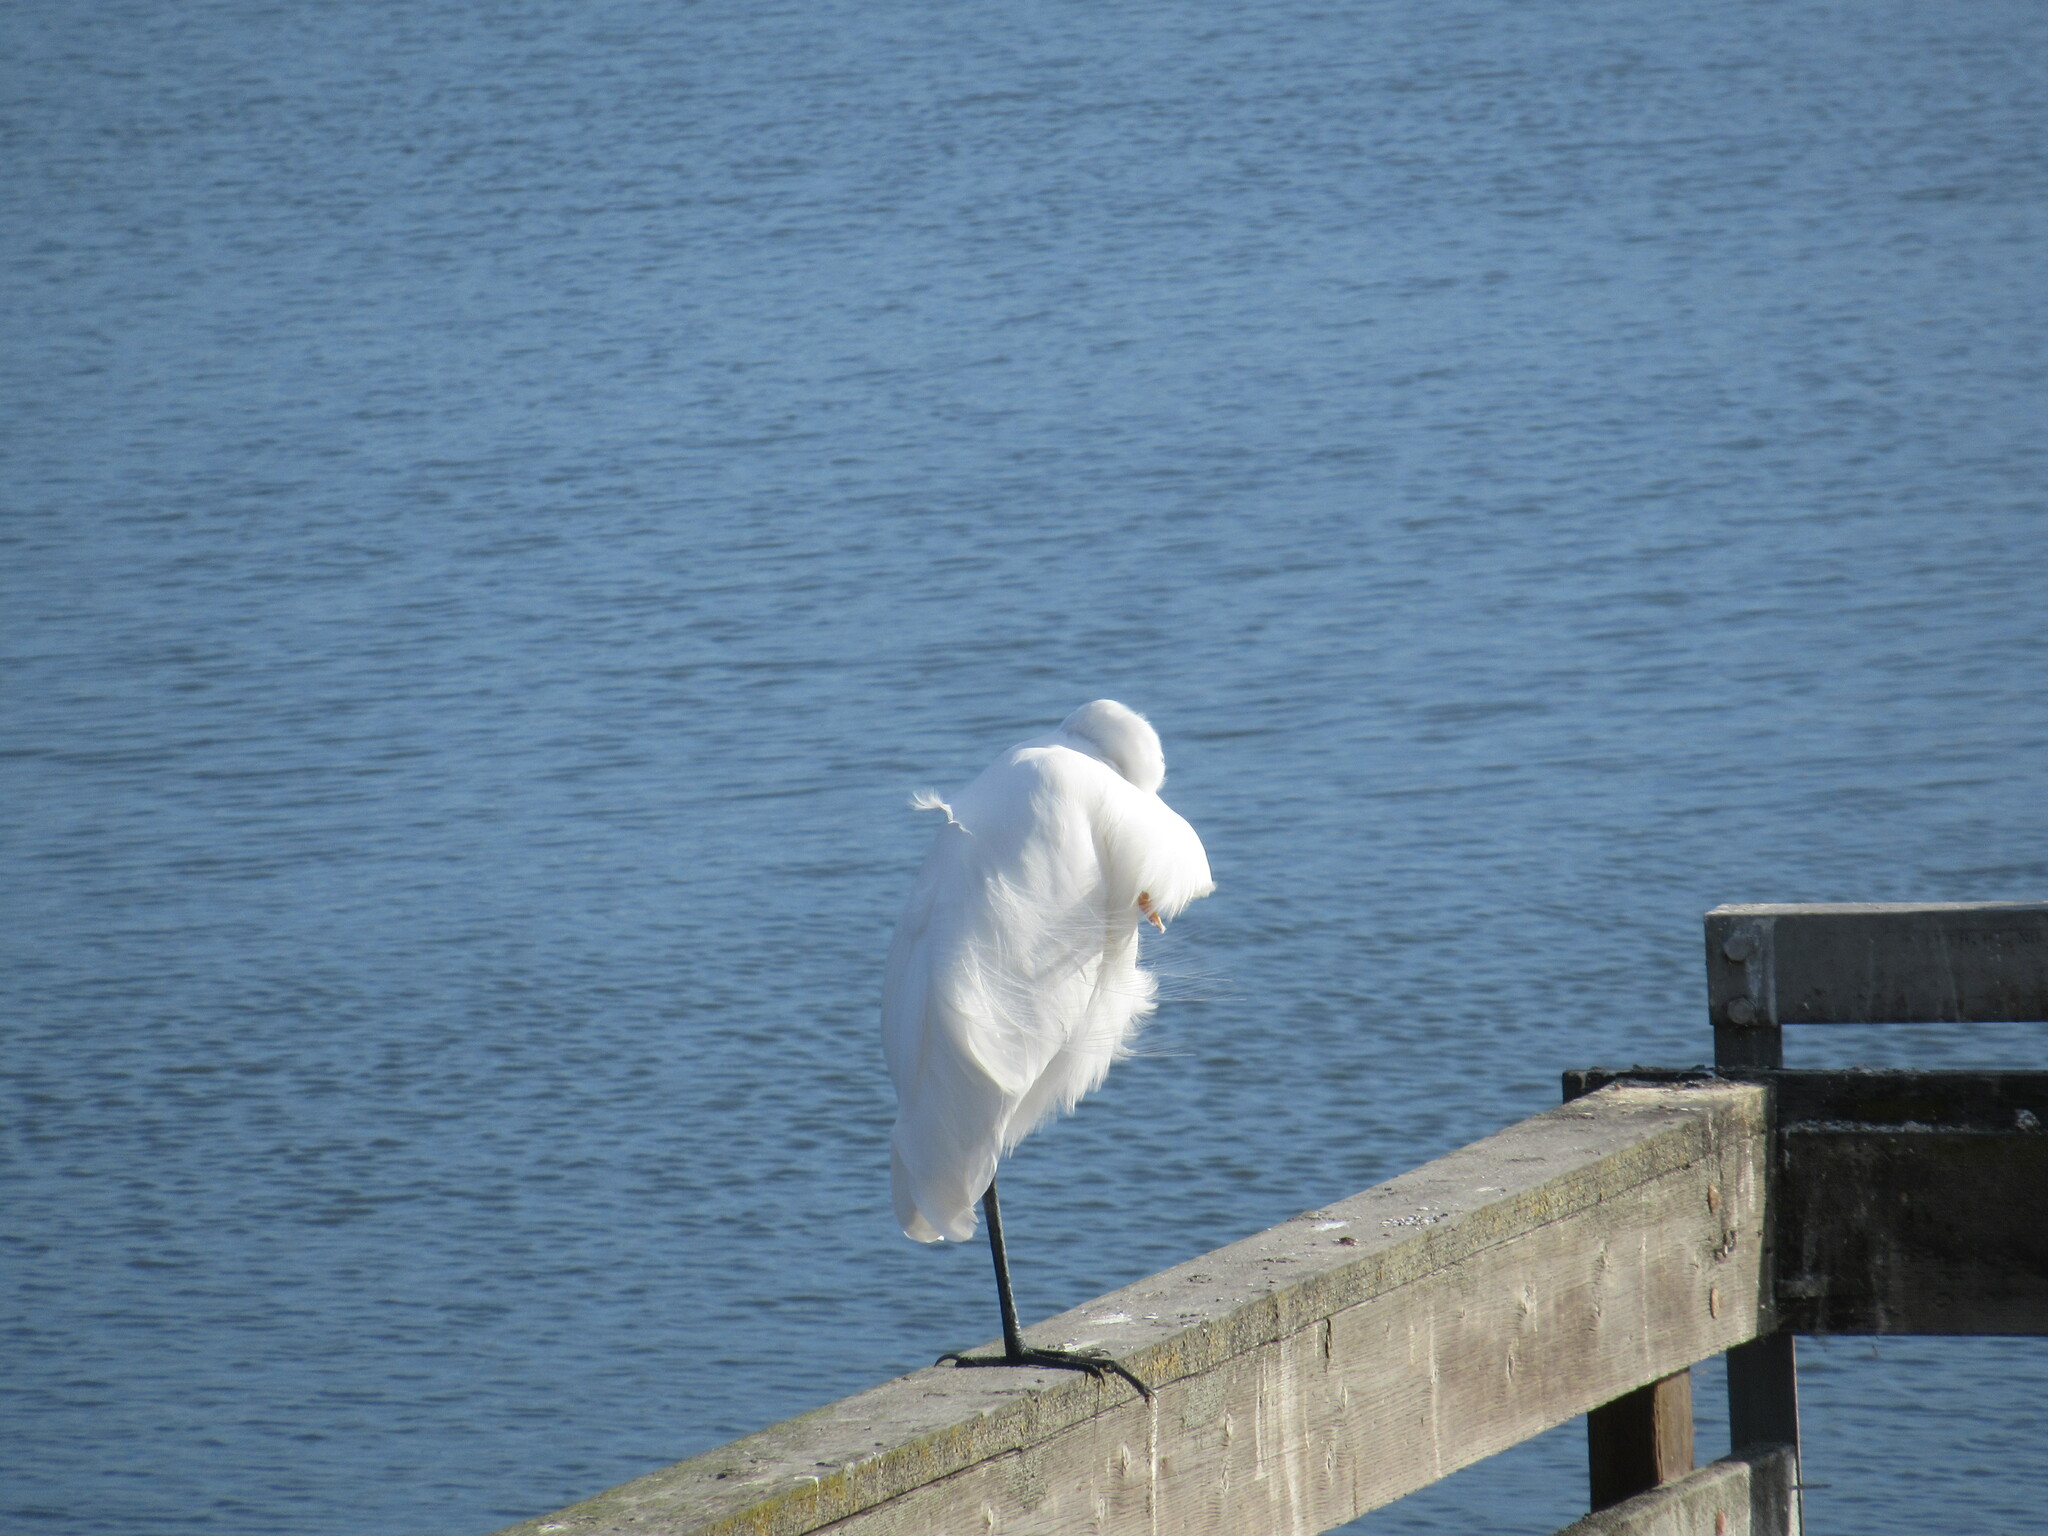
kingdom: Animalia
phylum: Chordata
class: Aves
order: Pelecaniformes
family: Ardeidae
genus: Ardea
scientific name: Ardea alba
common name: Great egret
